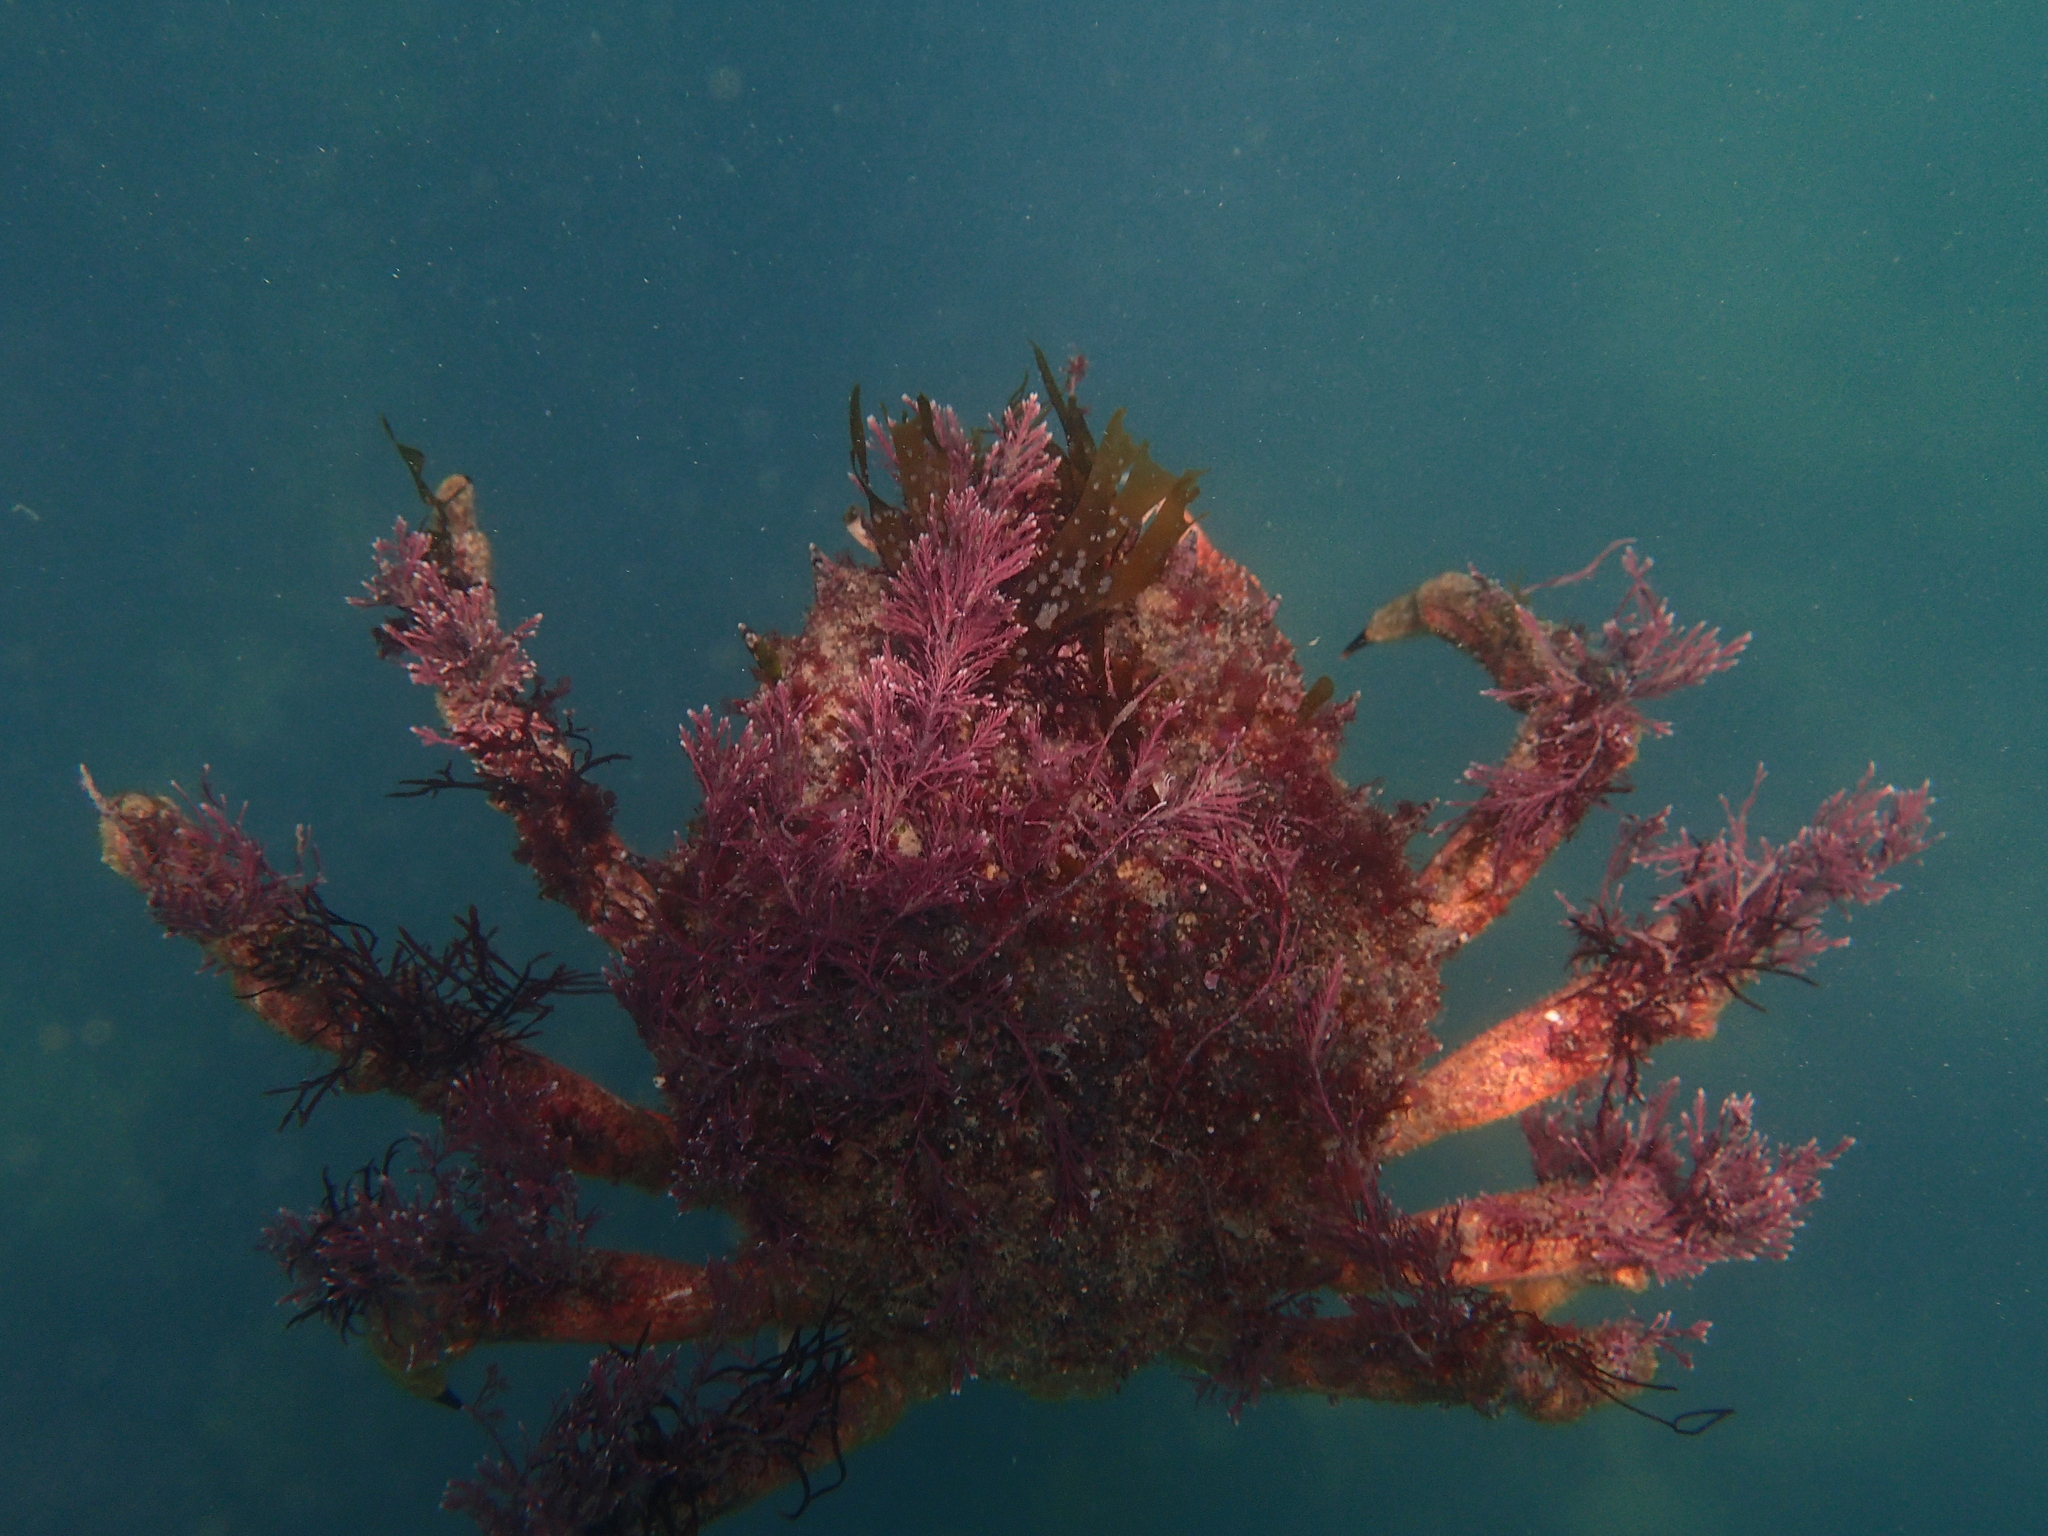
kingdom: Animalia
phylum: Arthropoda
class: Malacostraca
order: Decapoda
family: Majidae
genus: Maja
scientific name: Maja brachydactyla
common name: Common spider crab
